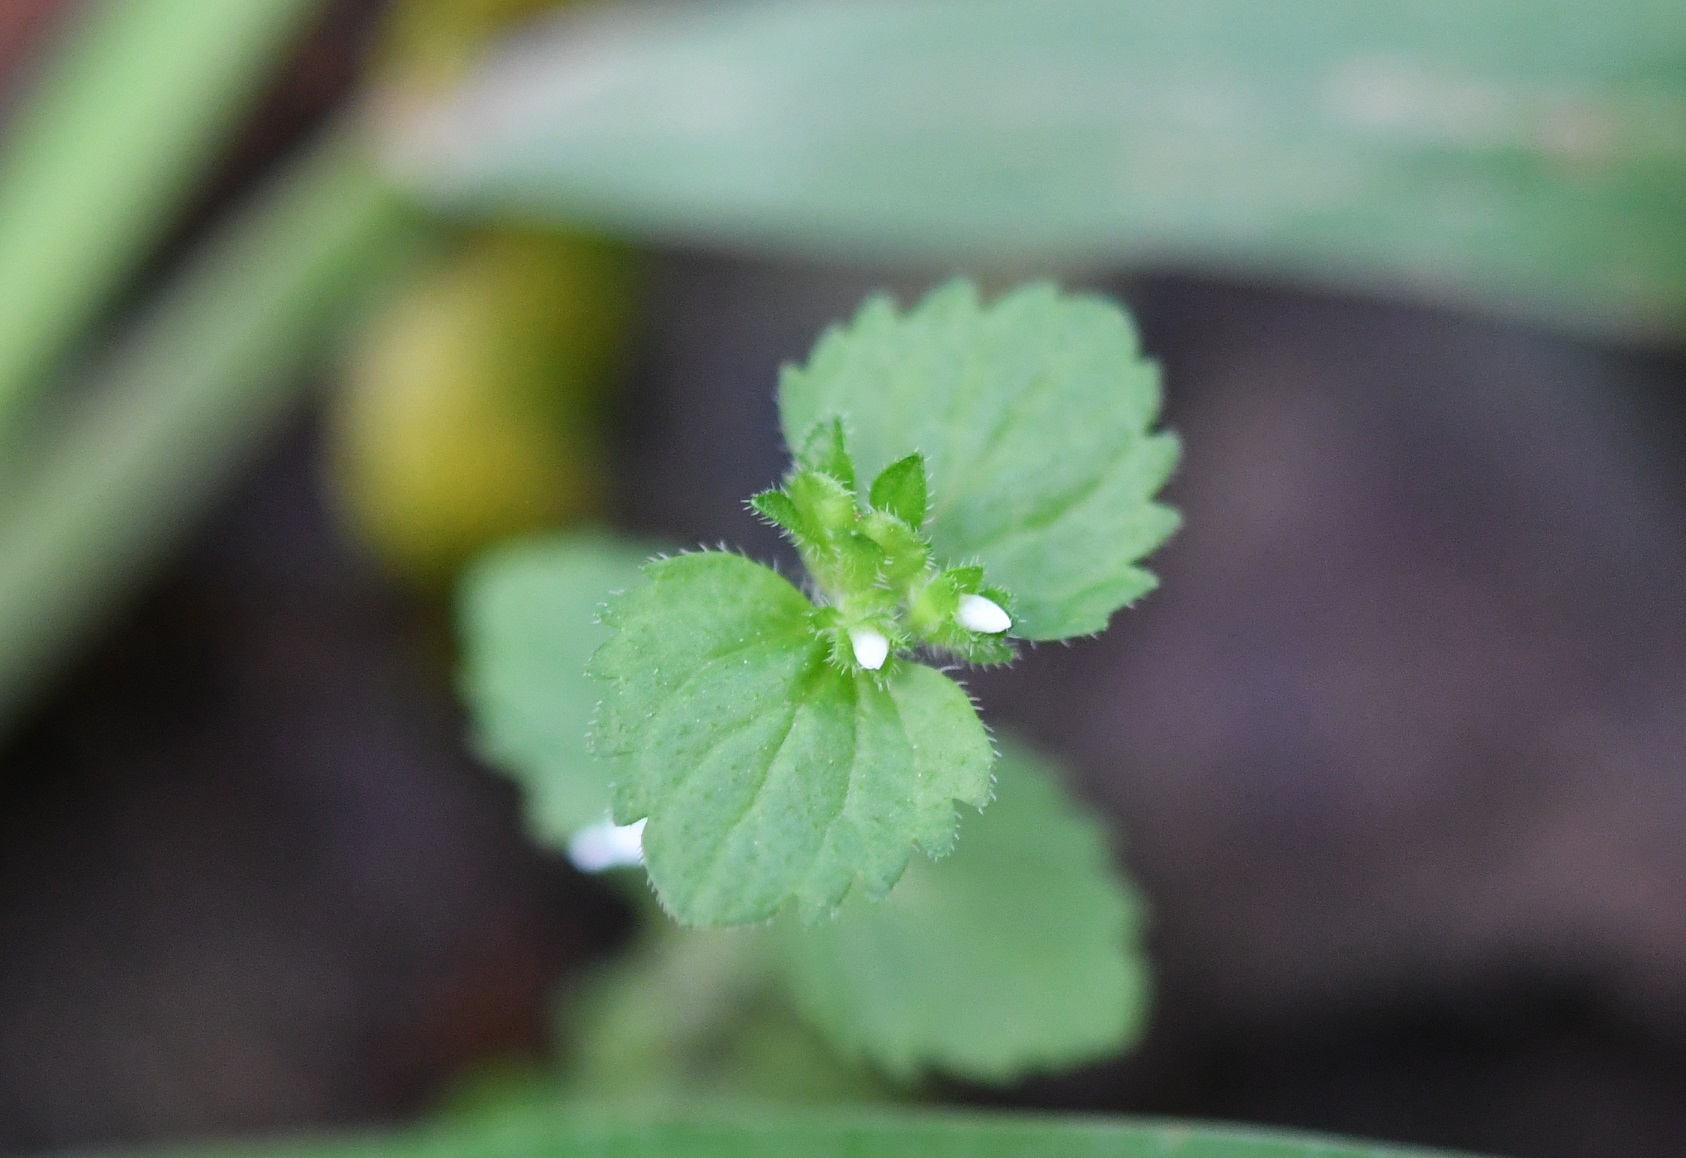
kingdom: Plantae
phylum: Tracheophyta
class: Magnoliopsida
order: Lamiales
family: Plantaginaceae
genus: Veronica
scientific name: Veronica javanica
